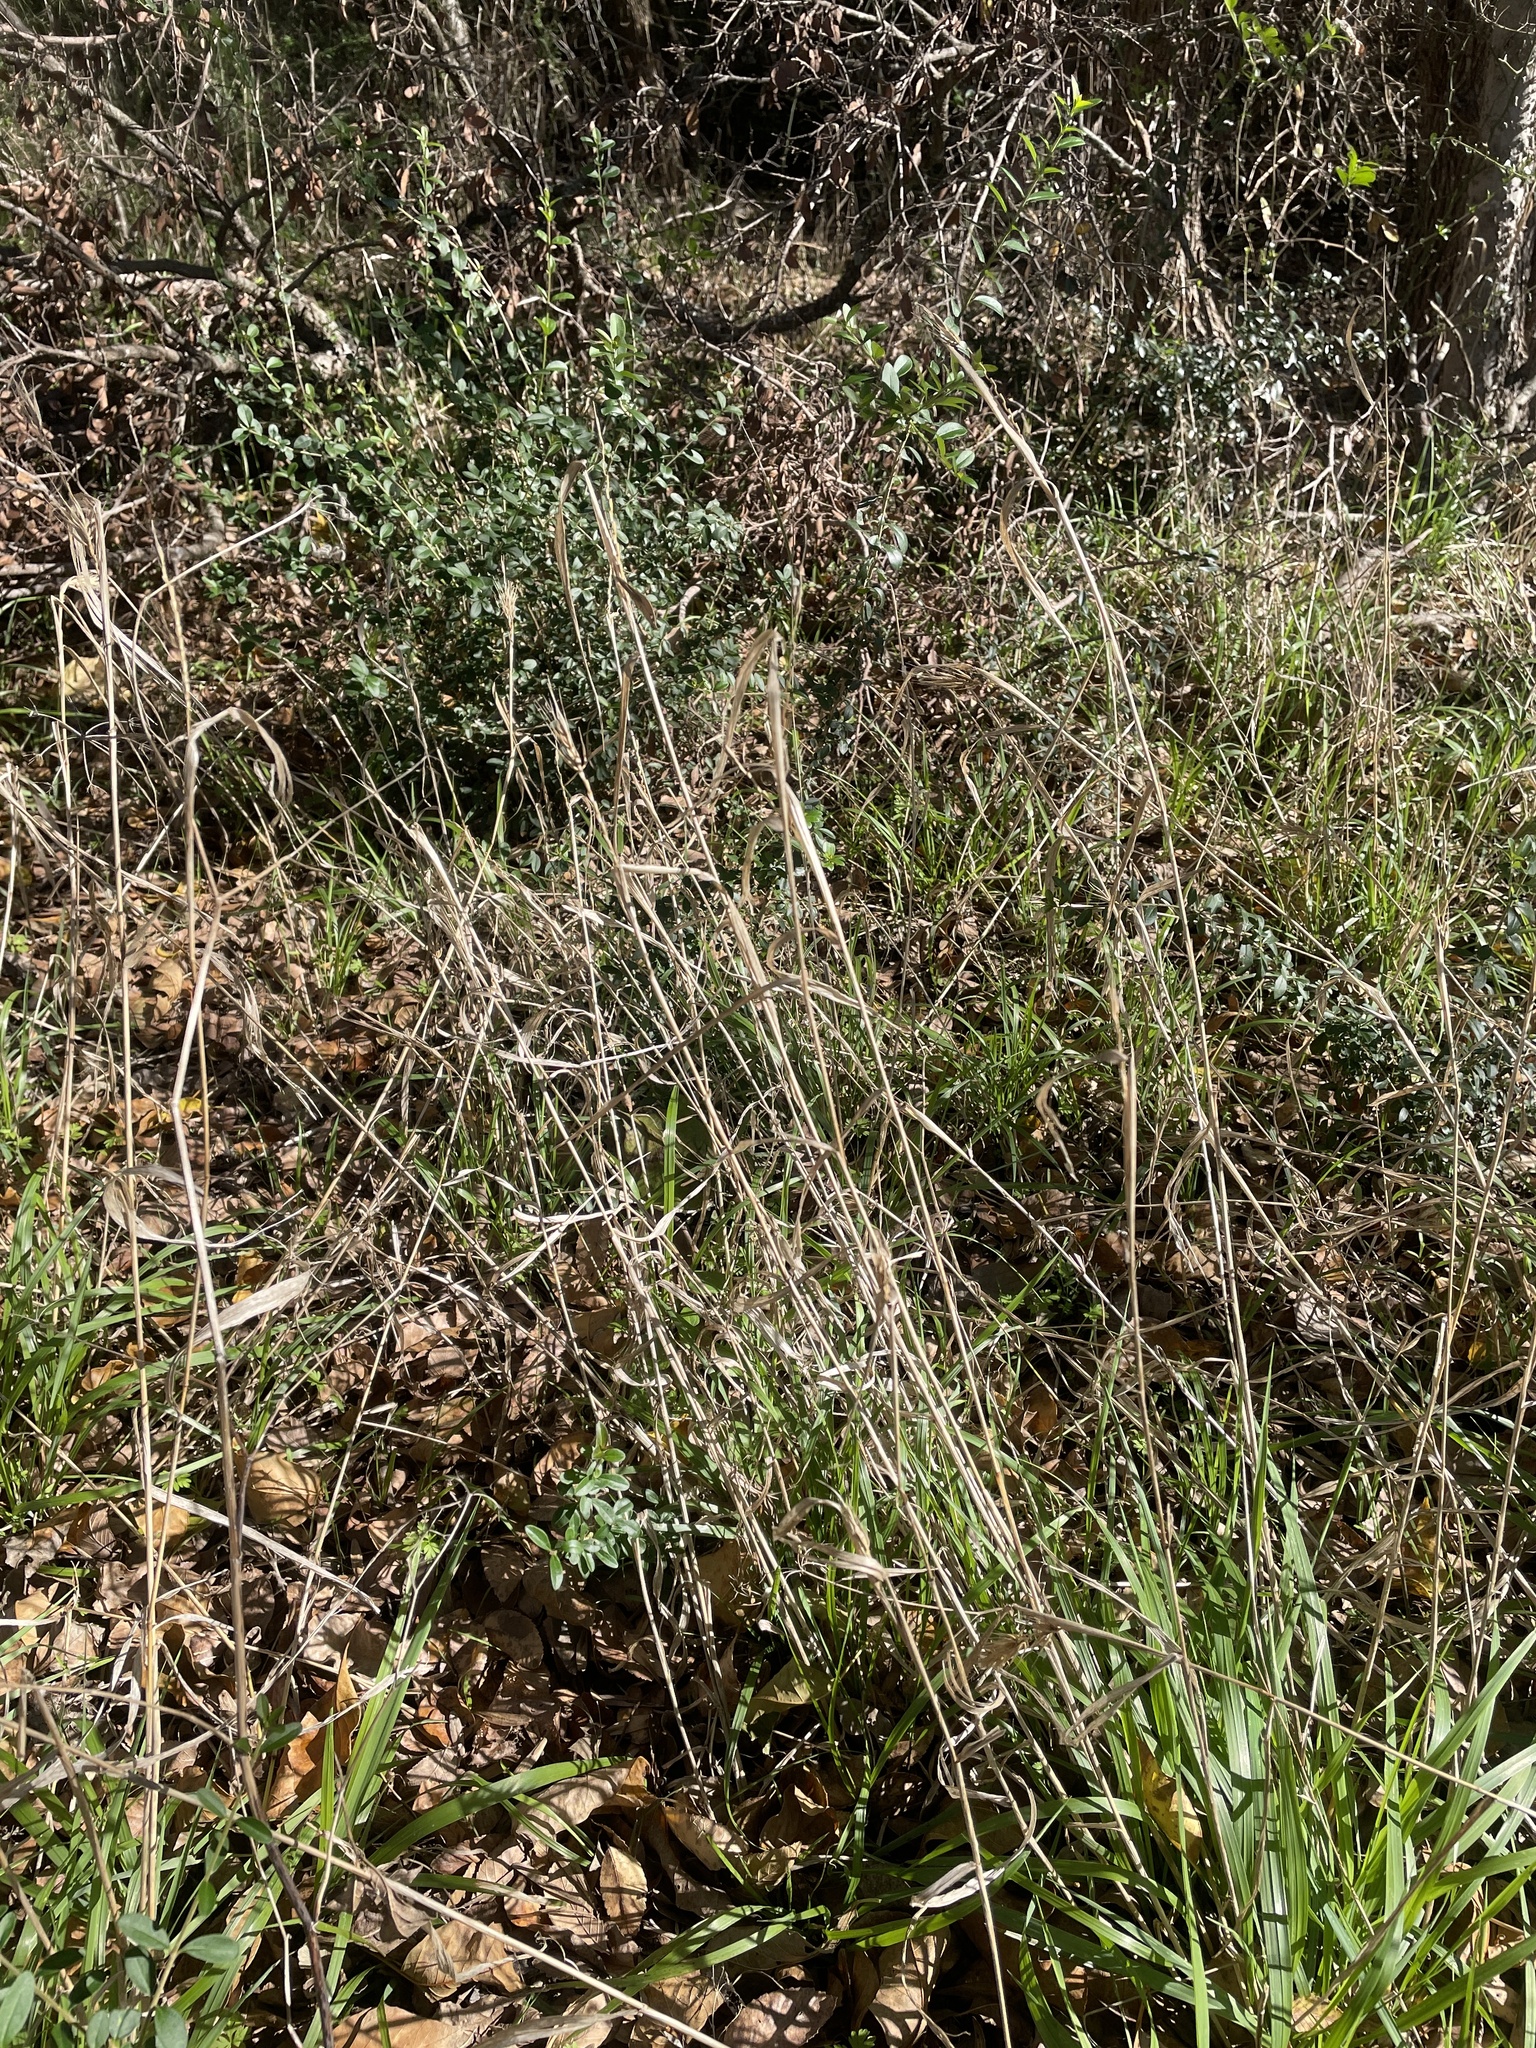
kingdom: Plantae
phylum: Tracheophyta
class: Liliopsida
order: Poales
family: Poaceae
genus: Elymus
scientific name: Elymus virginicus
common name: Common eastern wildrye
